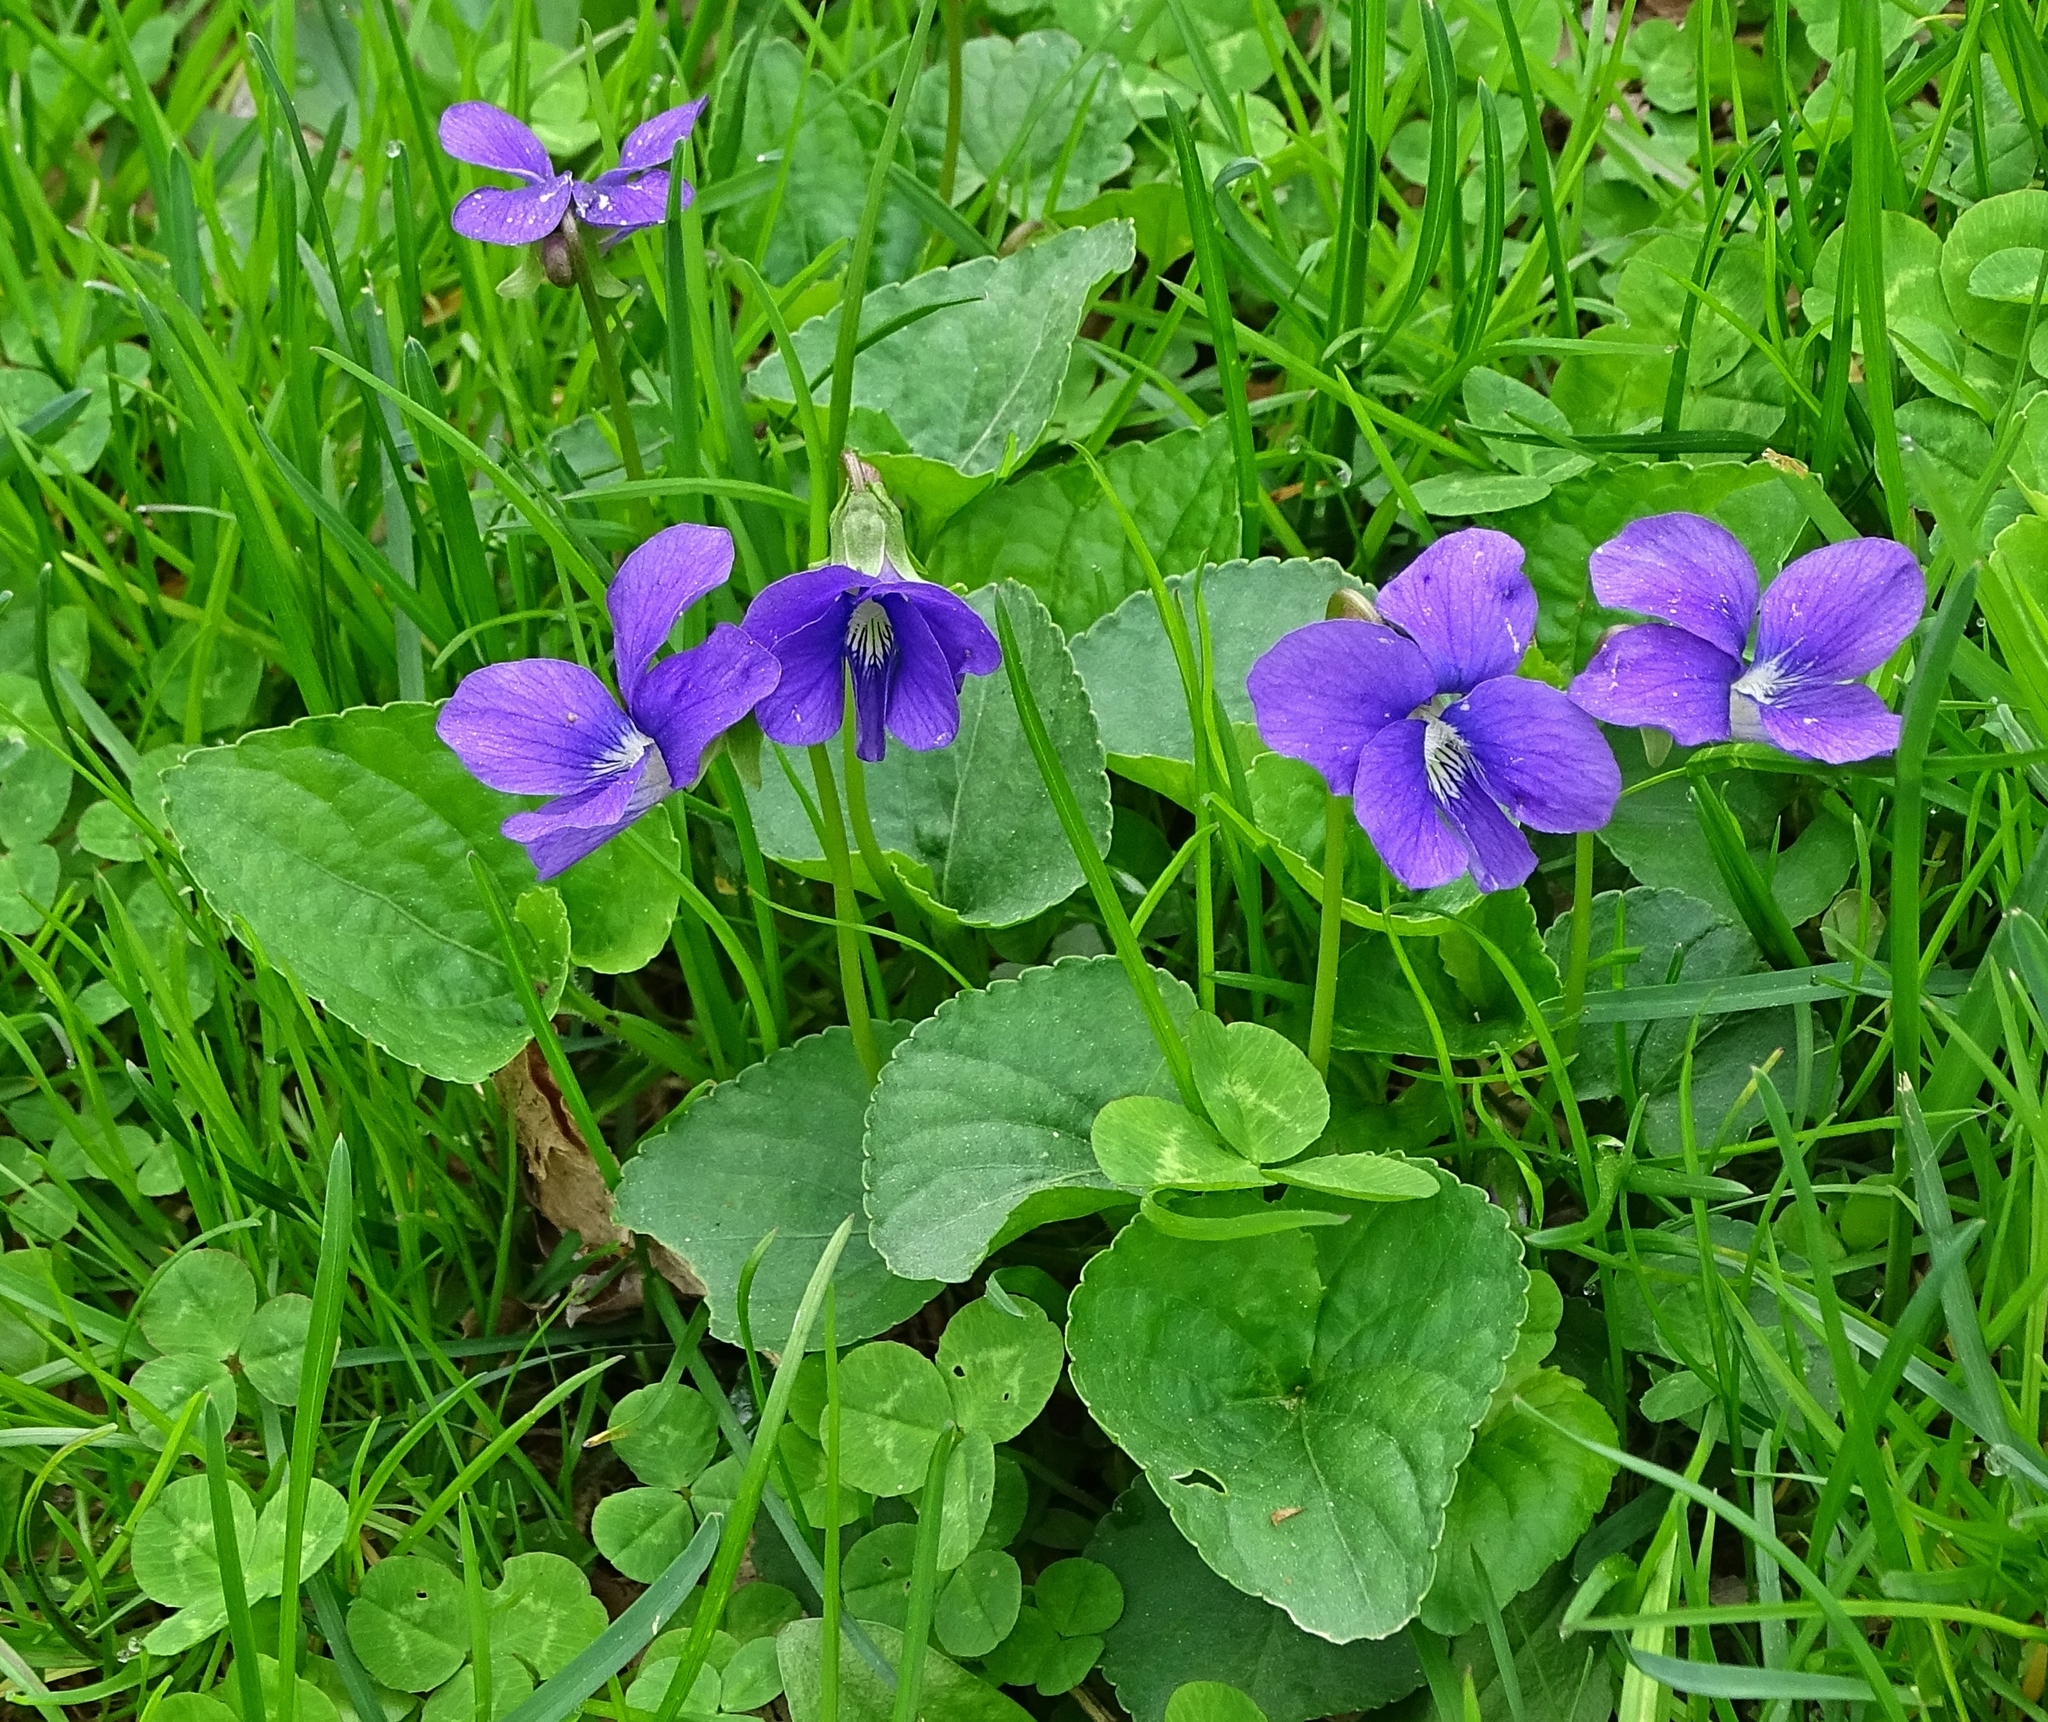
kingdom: Plantae
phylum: Tracheophyta
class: Magnoliopsida
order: Malpighiales
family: Violaceae
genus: Viola
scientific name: Viola sororia
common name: Dooryard violet
